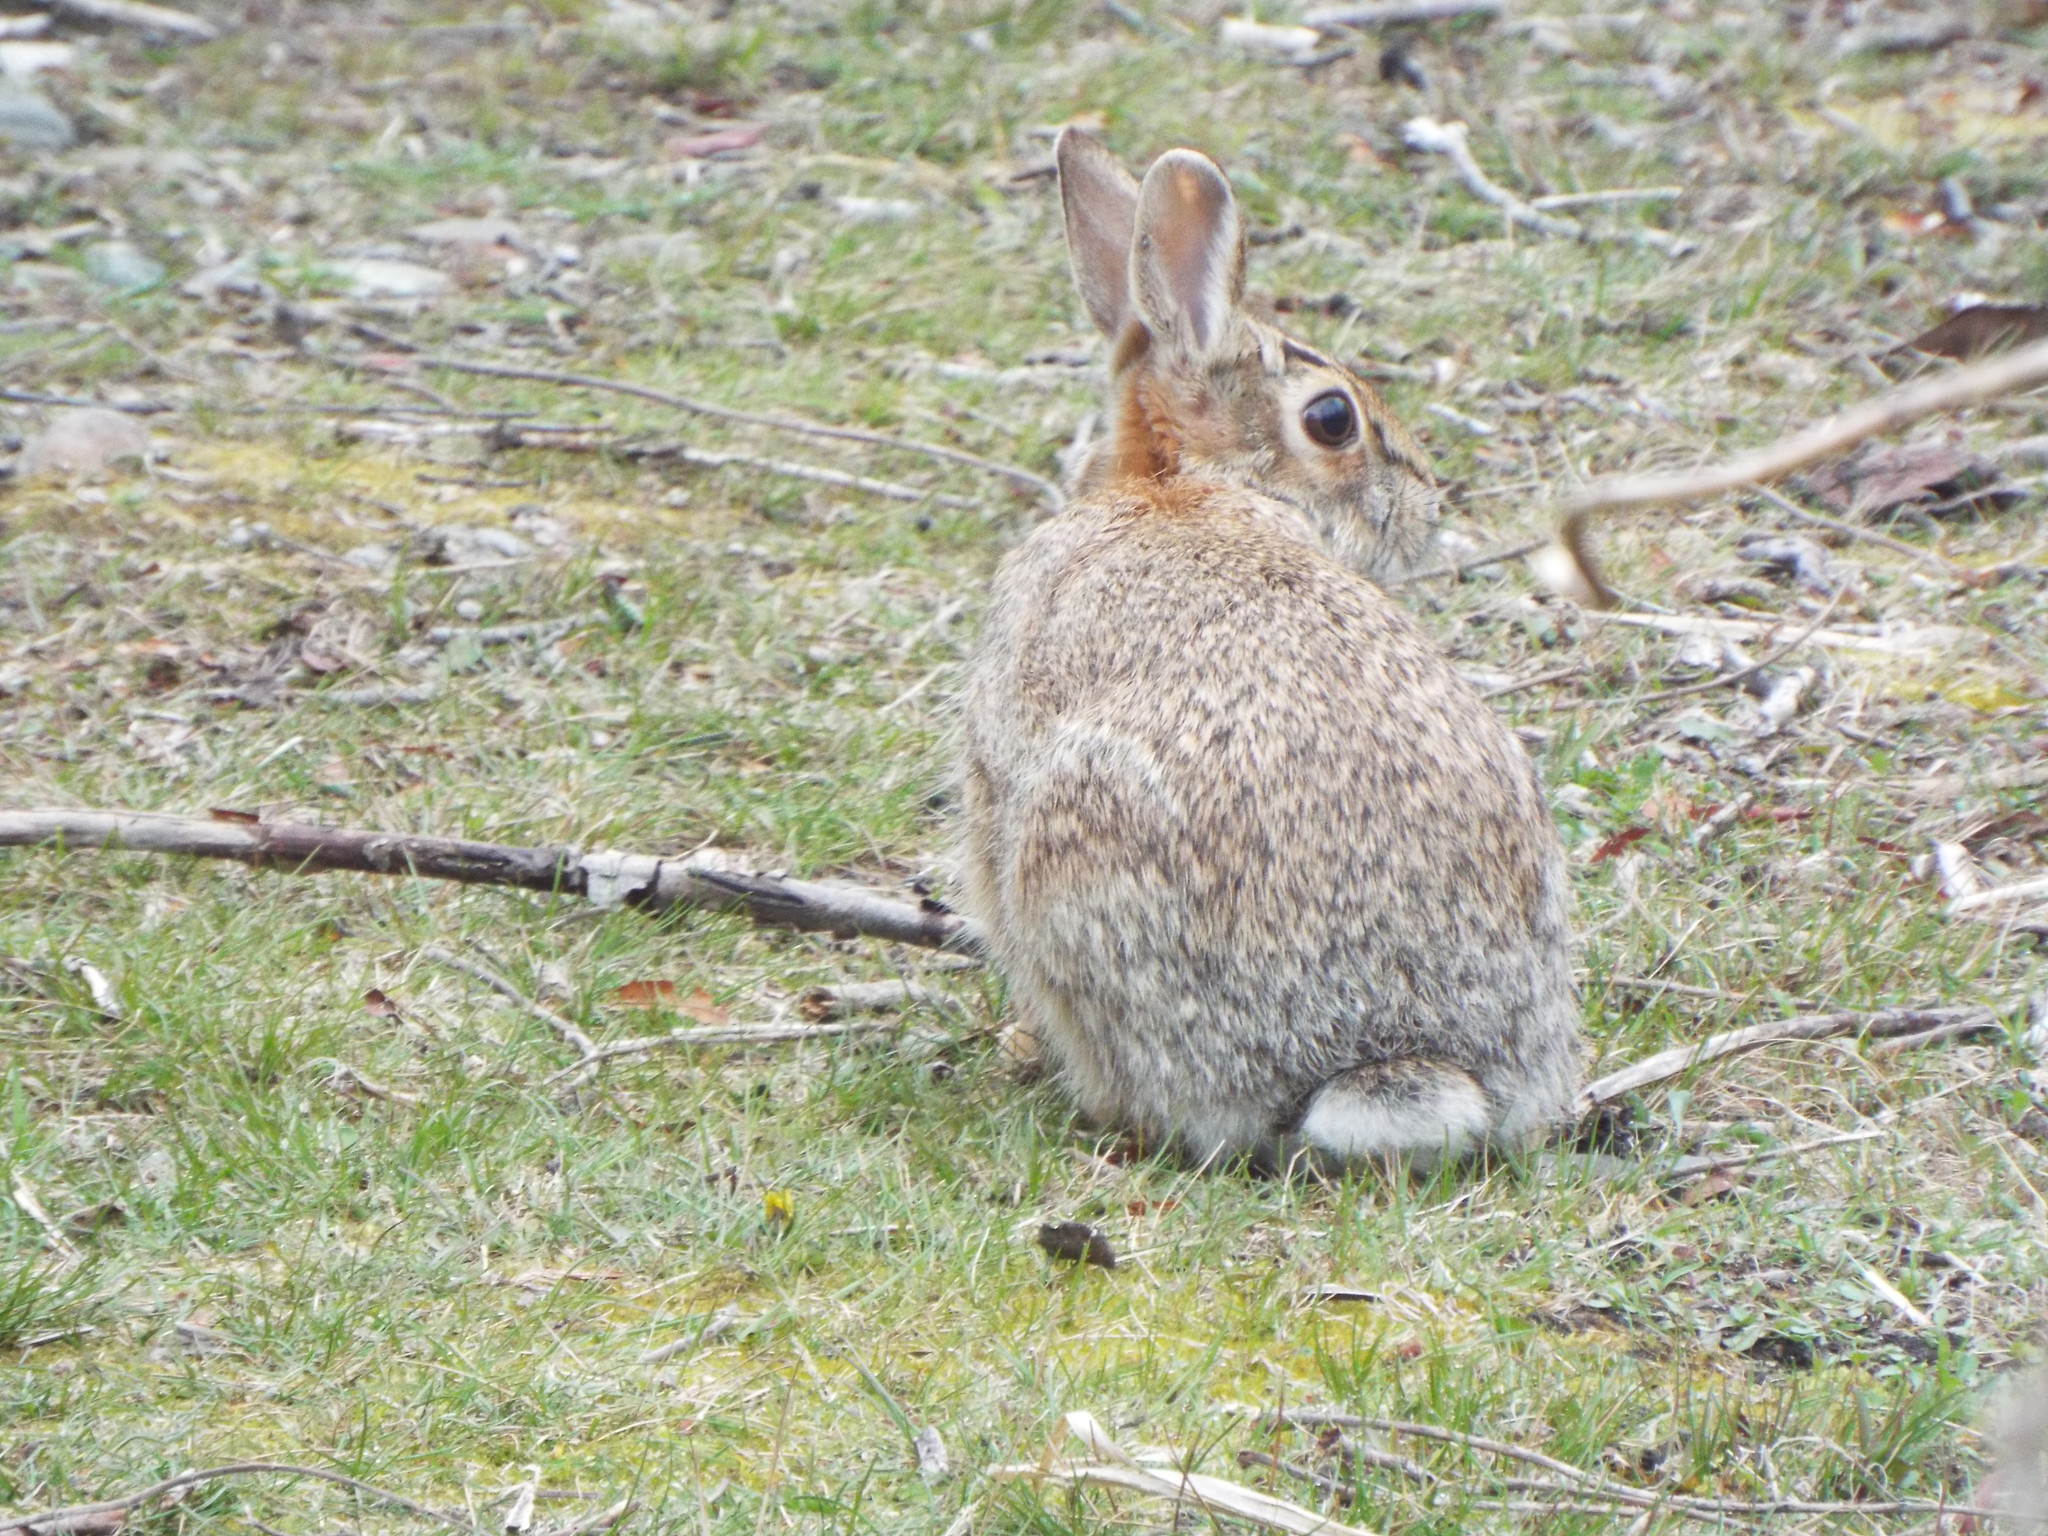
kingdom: Animalia
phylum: Chordata
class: Mammalia
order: Lagomorpha
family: Leporidae
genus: Sylvilagus
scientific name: Sylvilagus floridanus
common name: Eastern cottontail
